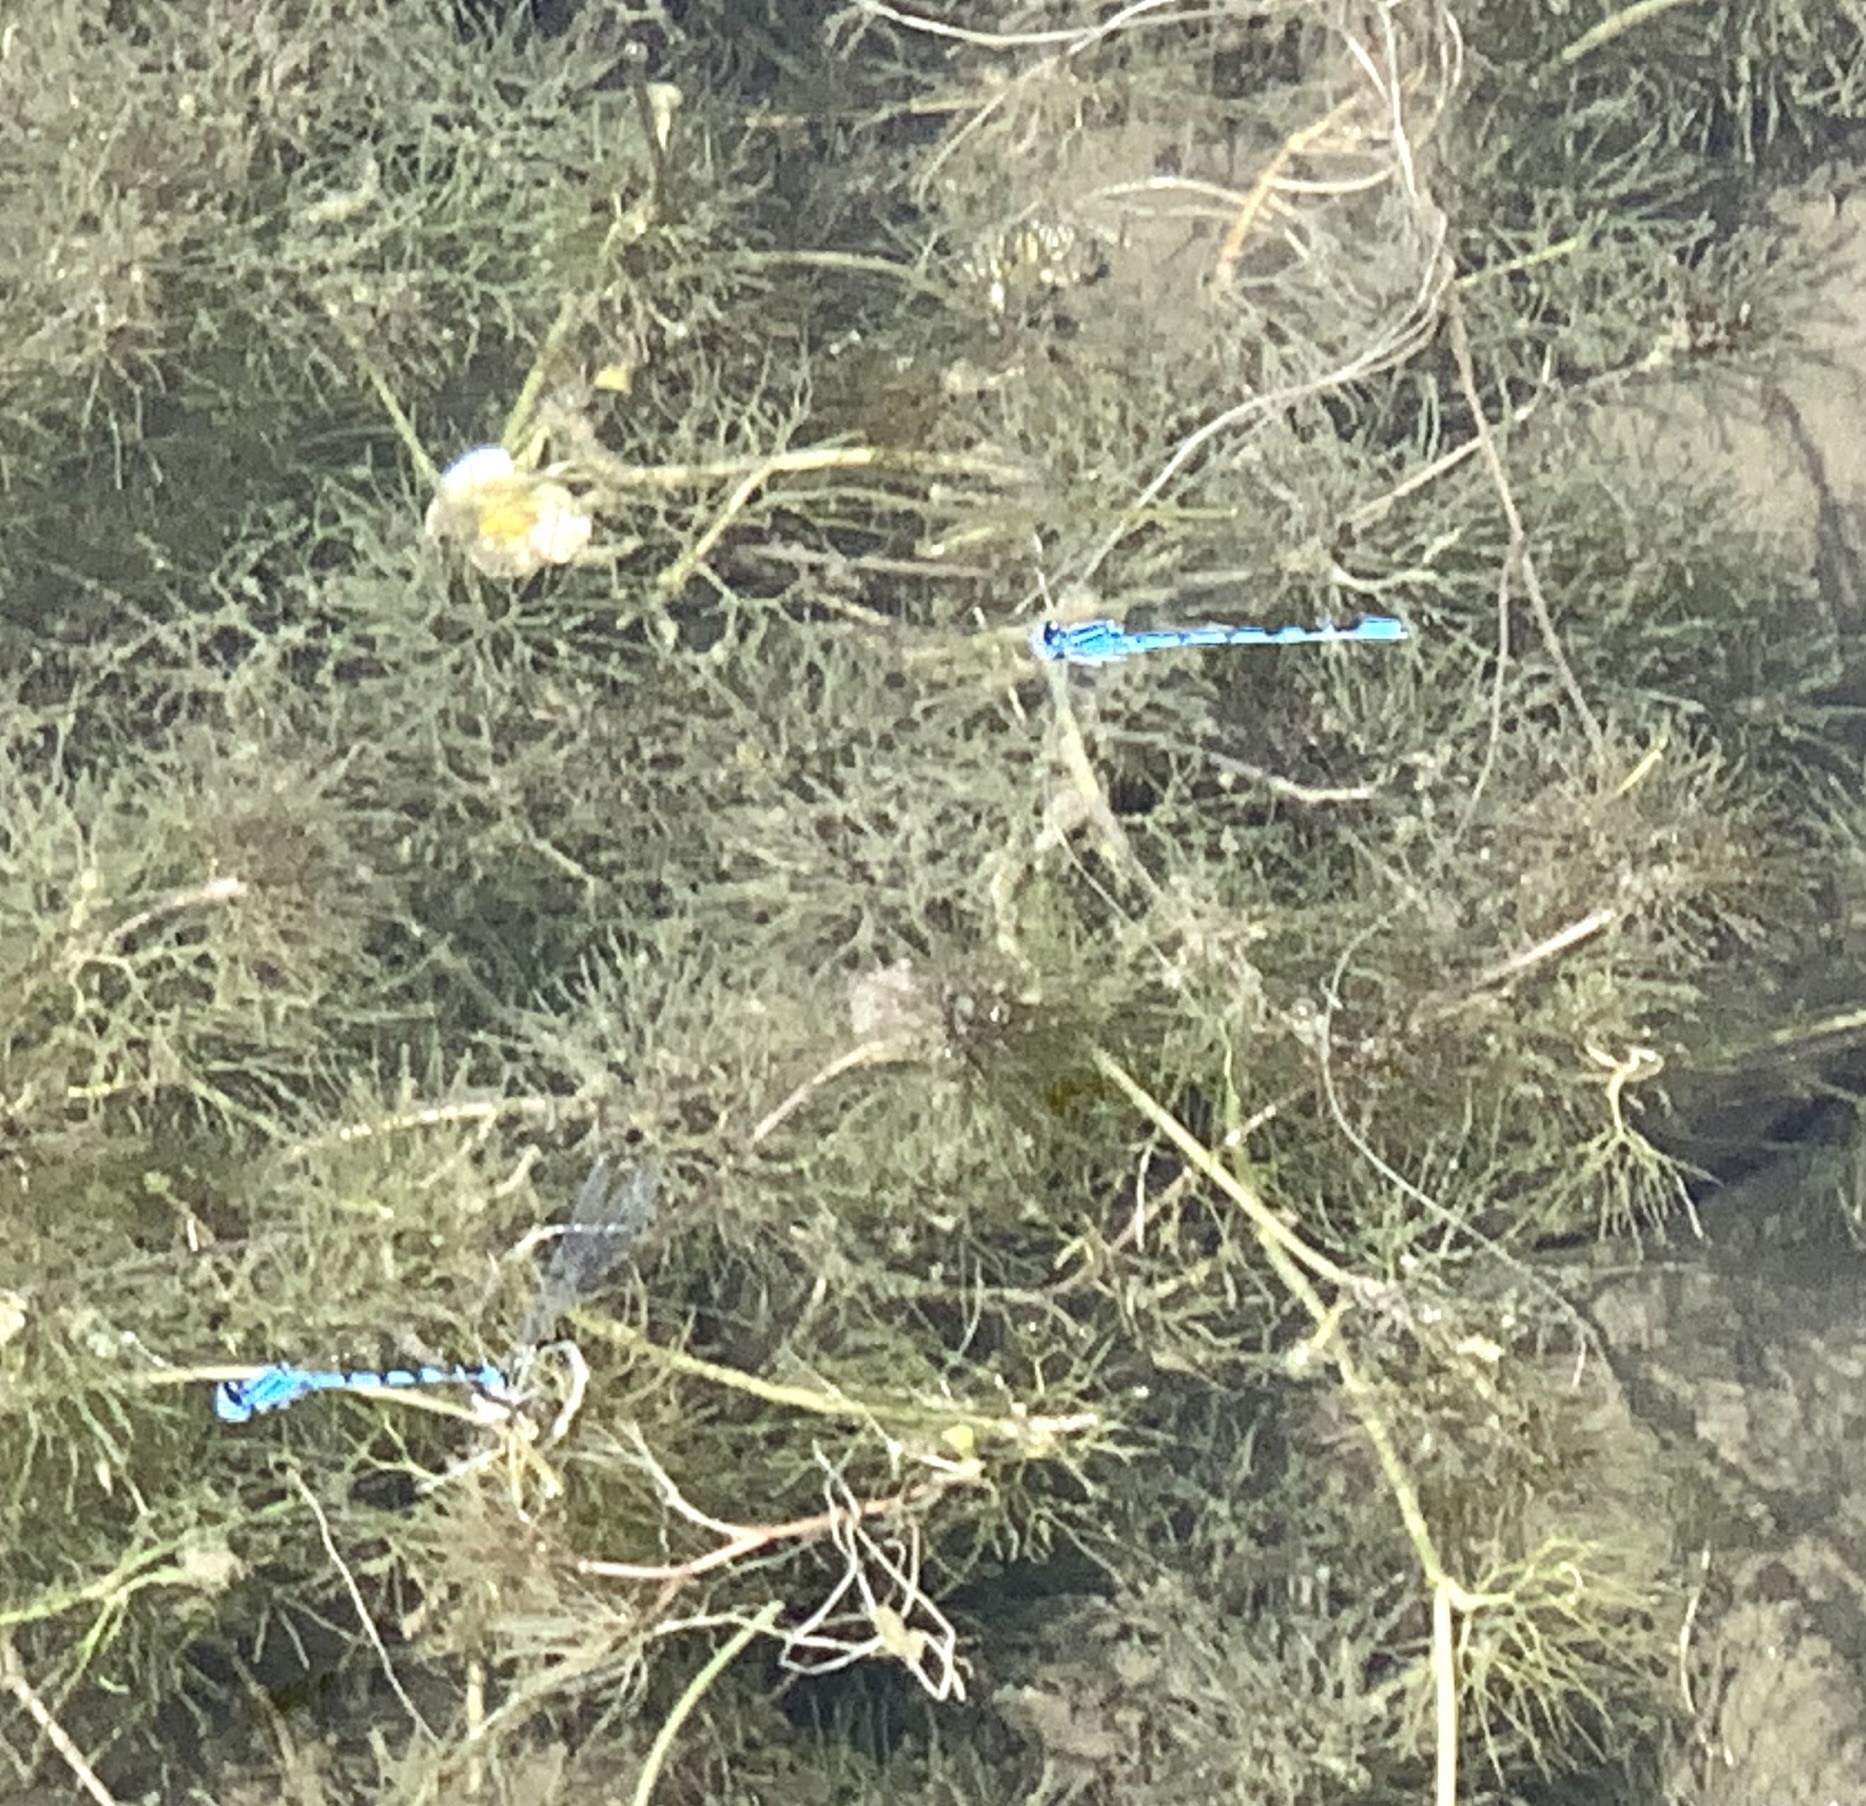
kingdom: Animalia
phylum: Arthropoda
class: Insecta
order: Odonata
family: Coenagrionidae
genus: Enallagma
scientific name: Enallagma cyathigerum
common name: Common blue damselfly
